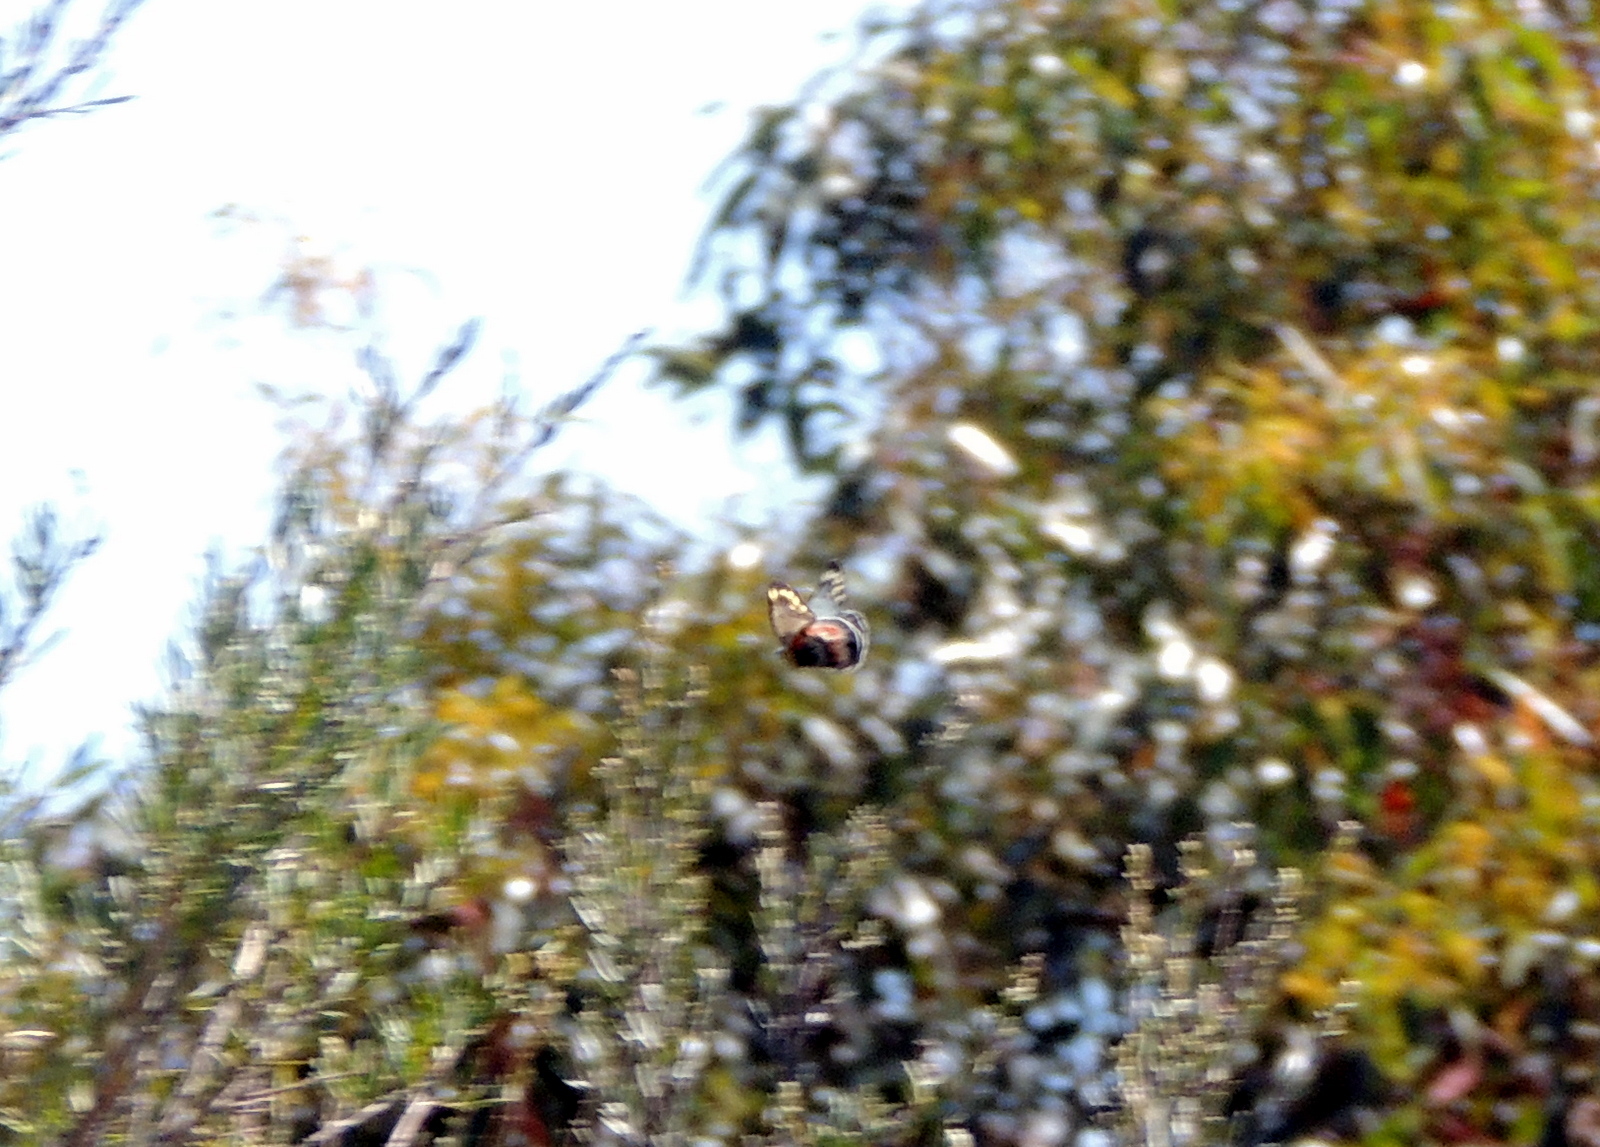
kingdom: Animalia
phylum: Arthropoda
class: Insecta
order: Lepidoptera
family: Pieridae
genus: Delias
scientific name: Delias harpalyce
